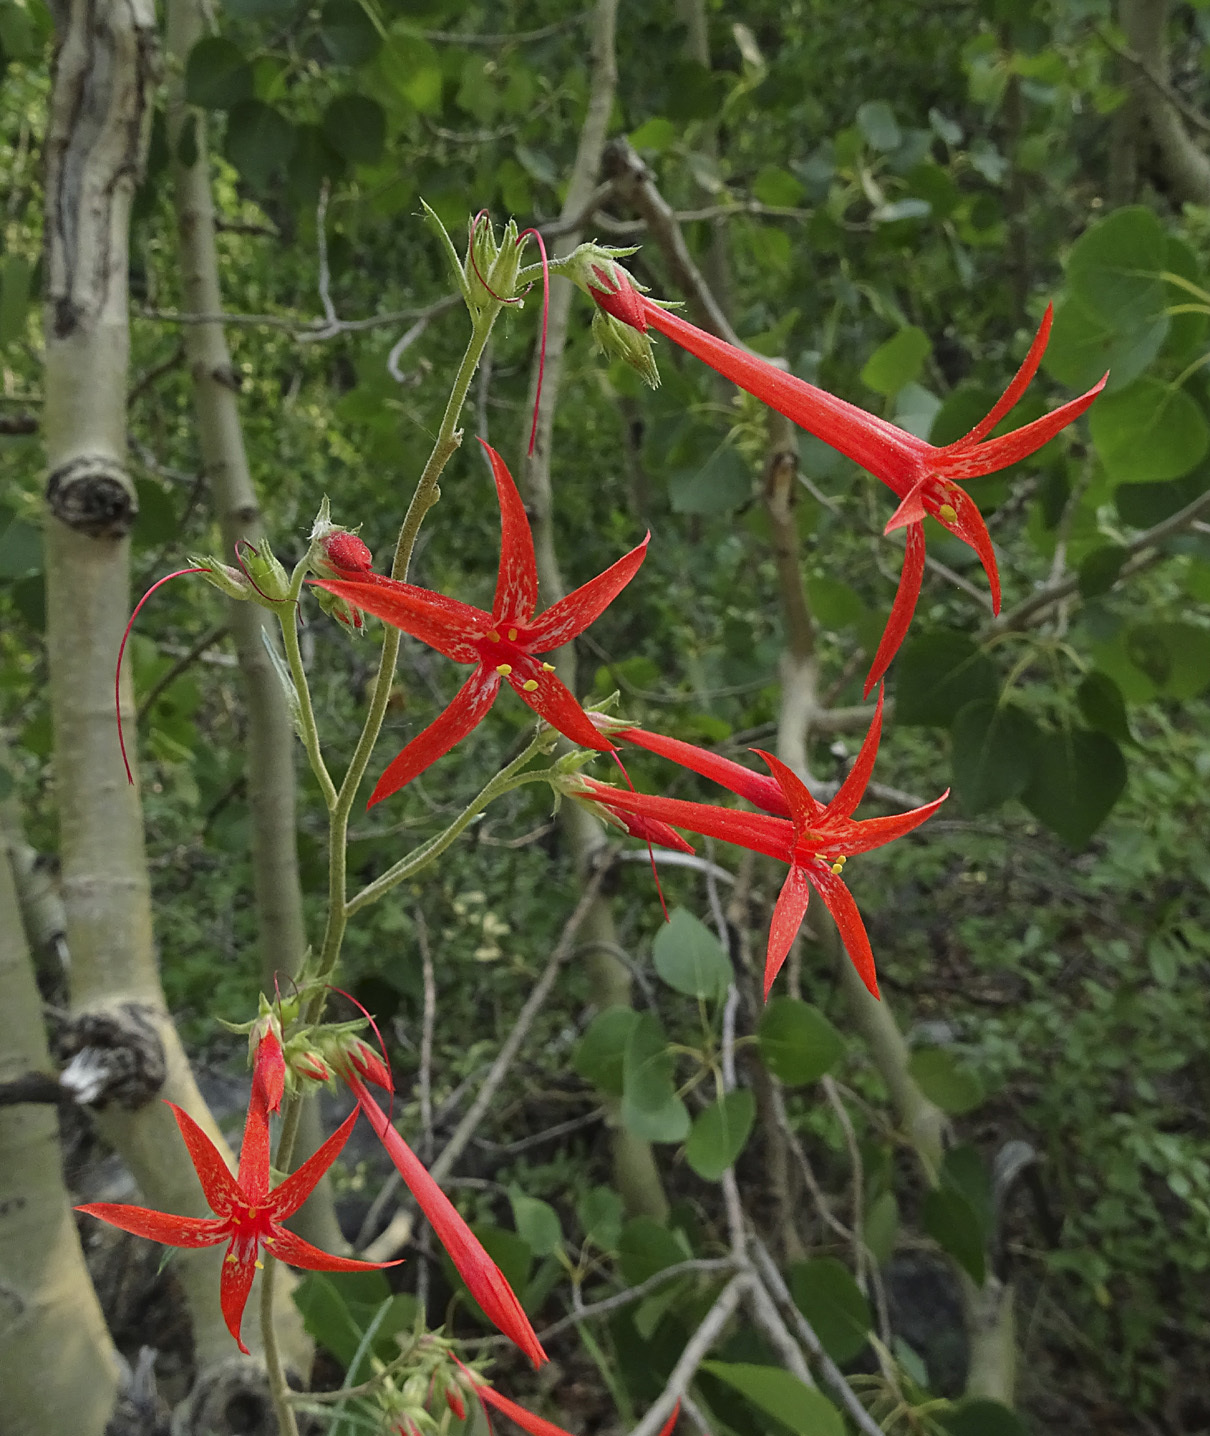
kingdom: Plantae
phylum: Tracheophyta
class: Magnoliopsida
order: Ericales
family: Polemoniaceae
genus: Ipomopsis
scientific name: Ipomopsis aggregata
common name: Scarlet gilia
